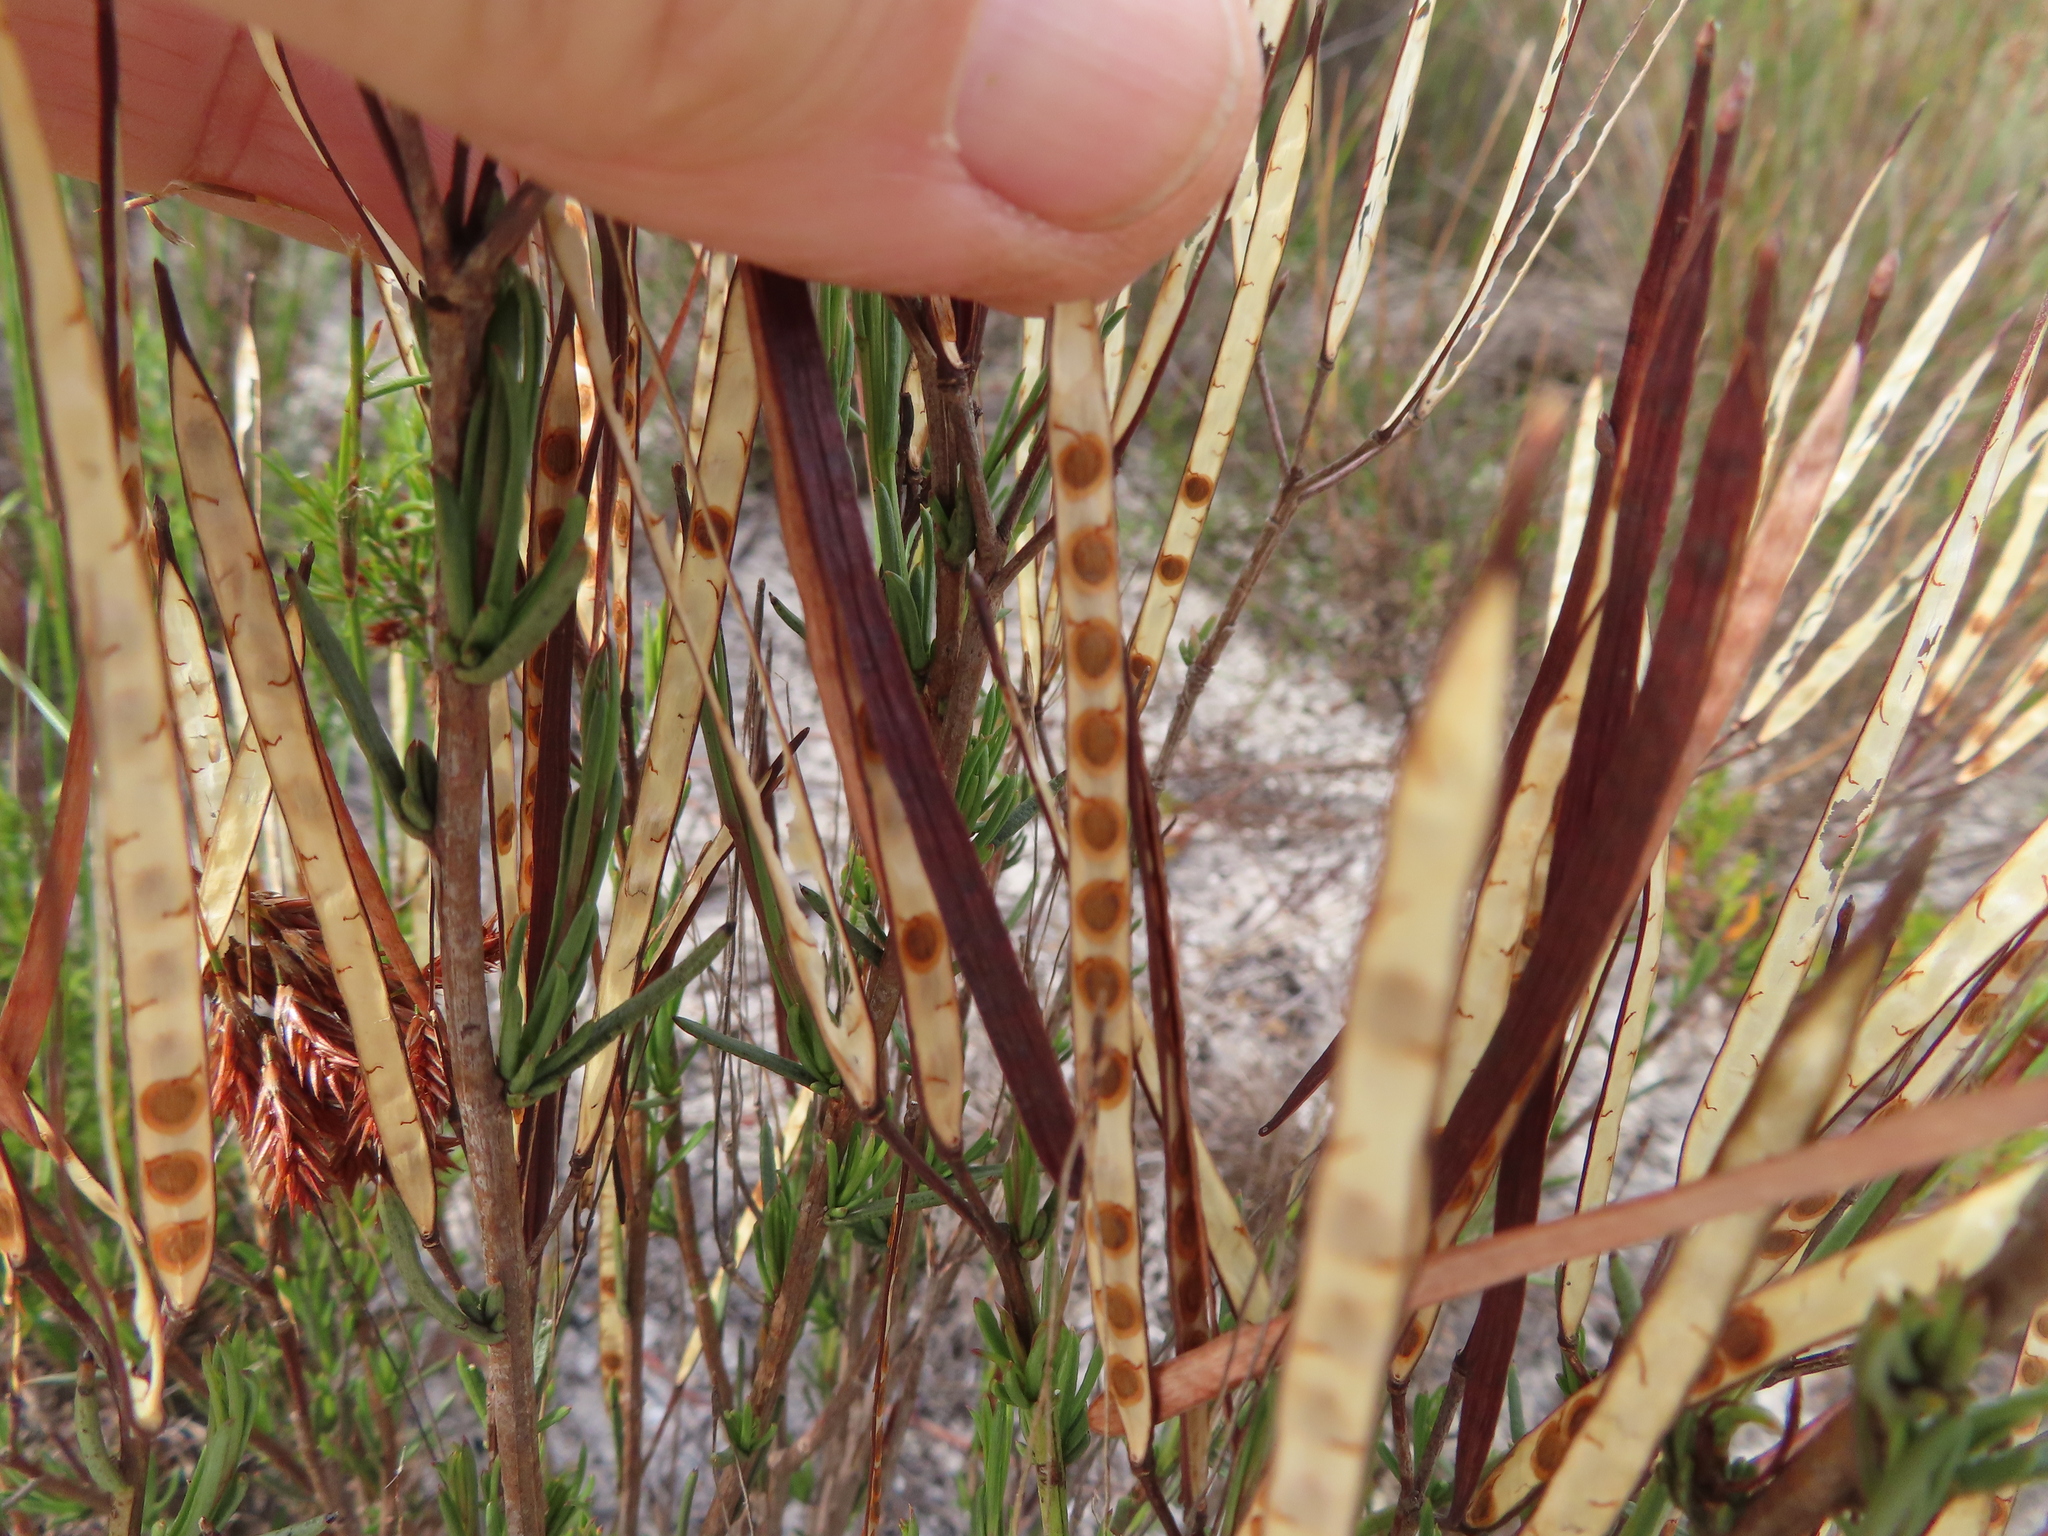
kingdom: Plantae
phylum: Tracheophyta
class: Magnoliopsida
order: Brassicales
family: Brassicaceae
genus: Heliophila
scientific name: Heliophila scoparia
